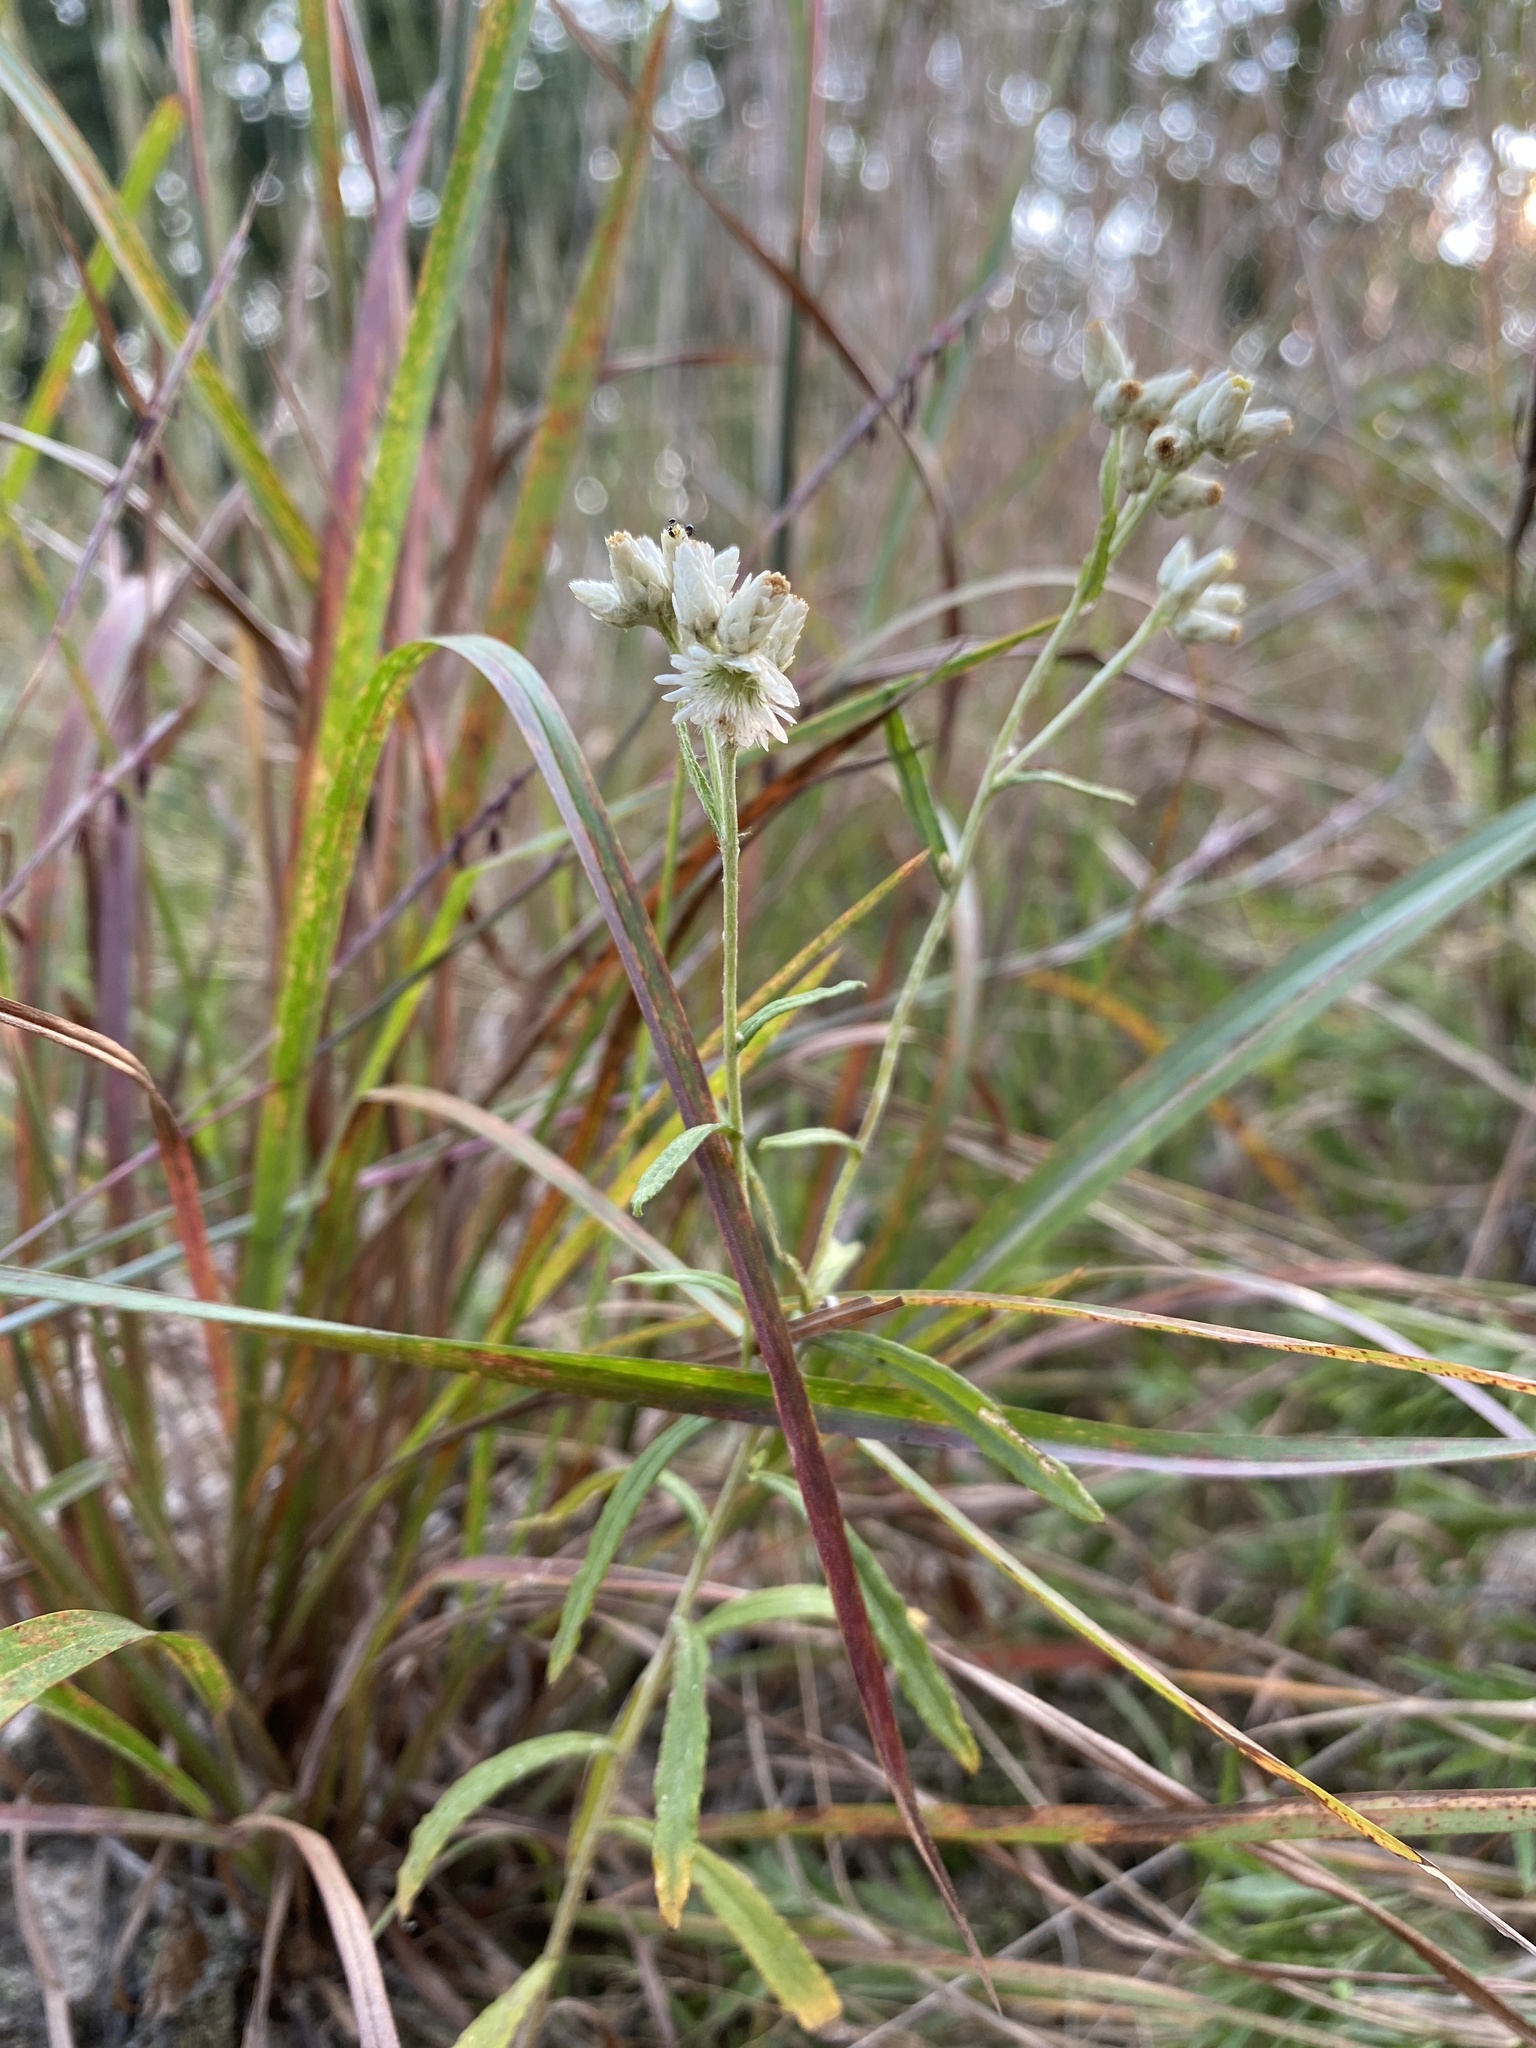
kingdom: Plantae
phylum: Tracheophyta
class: Magnoliopsida
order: Asterales
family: Asteraceae
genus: Pseudognaphalium
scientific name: Pseudognaphalium obtusifolium
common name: Eastern rabbit-tobacco
